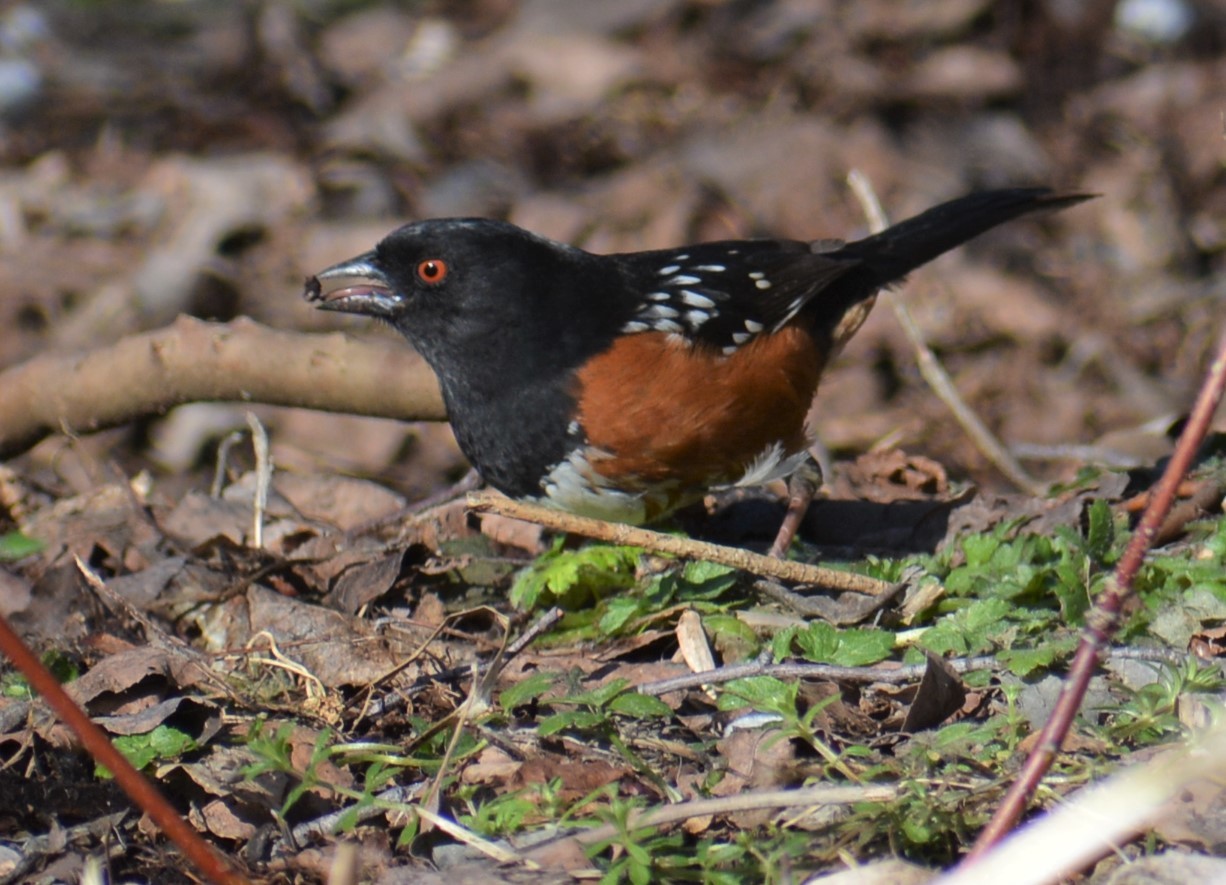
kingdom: Animalia
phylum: Chordata
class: Aves
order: Passeriformes
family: Passerellidae
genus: Pipilo
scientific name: Pipilo maculatus
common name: Spotted towhee
